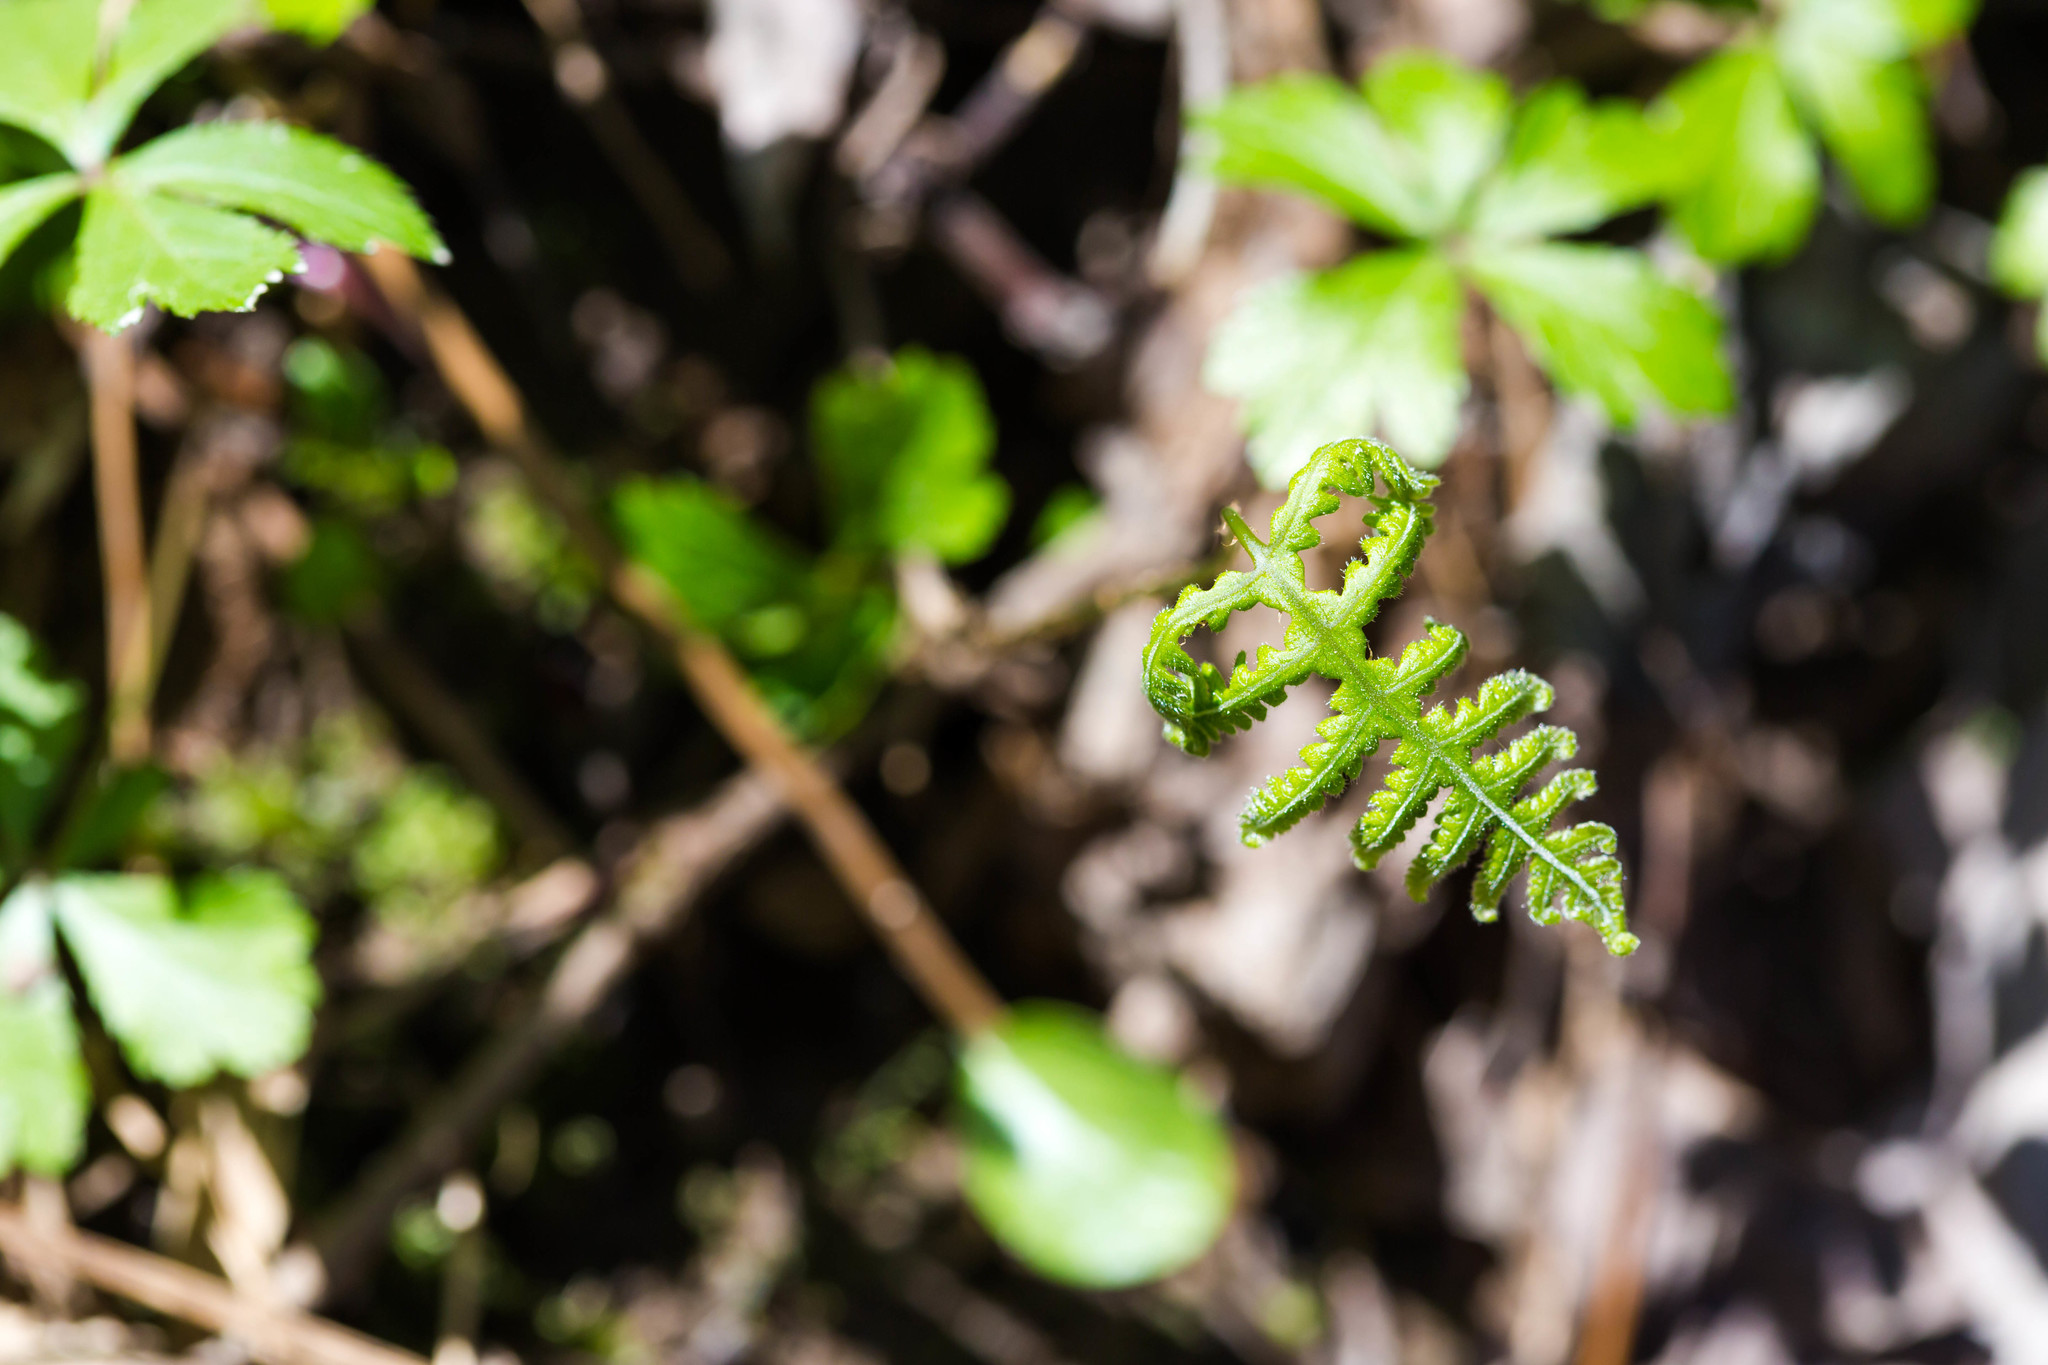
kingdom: Plantae
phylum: Tracheophyta
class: Polypodiopsida
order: Polypodiales
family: Thelypteridaceae
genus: Phegopteris
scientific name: Phegopteris hexagonoptera
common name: Broad beech fern
